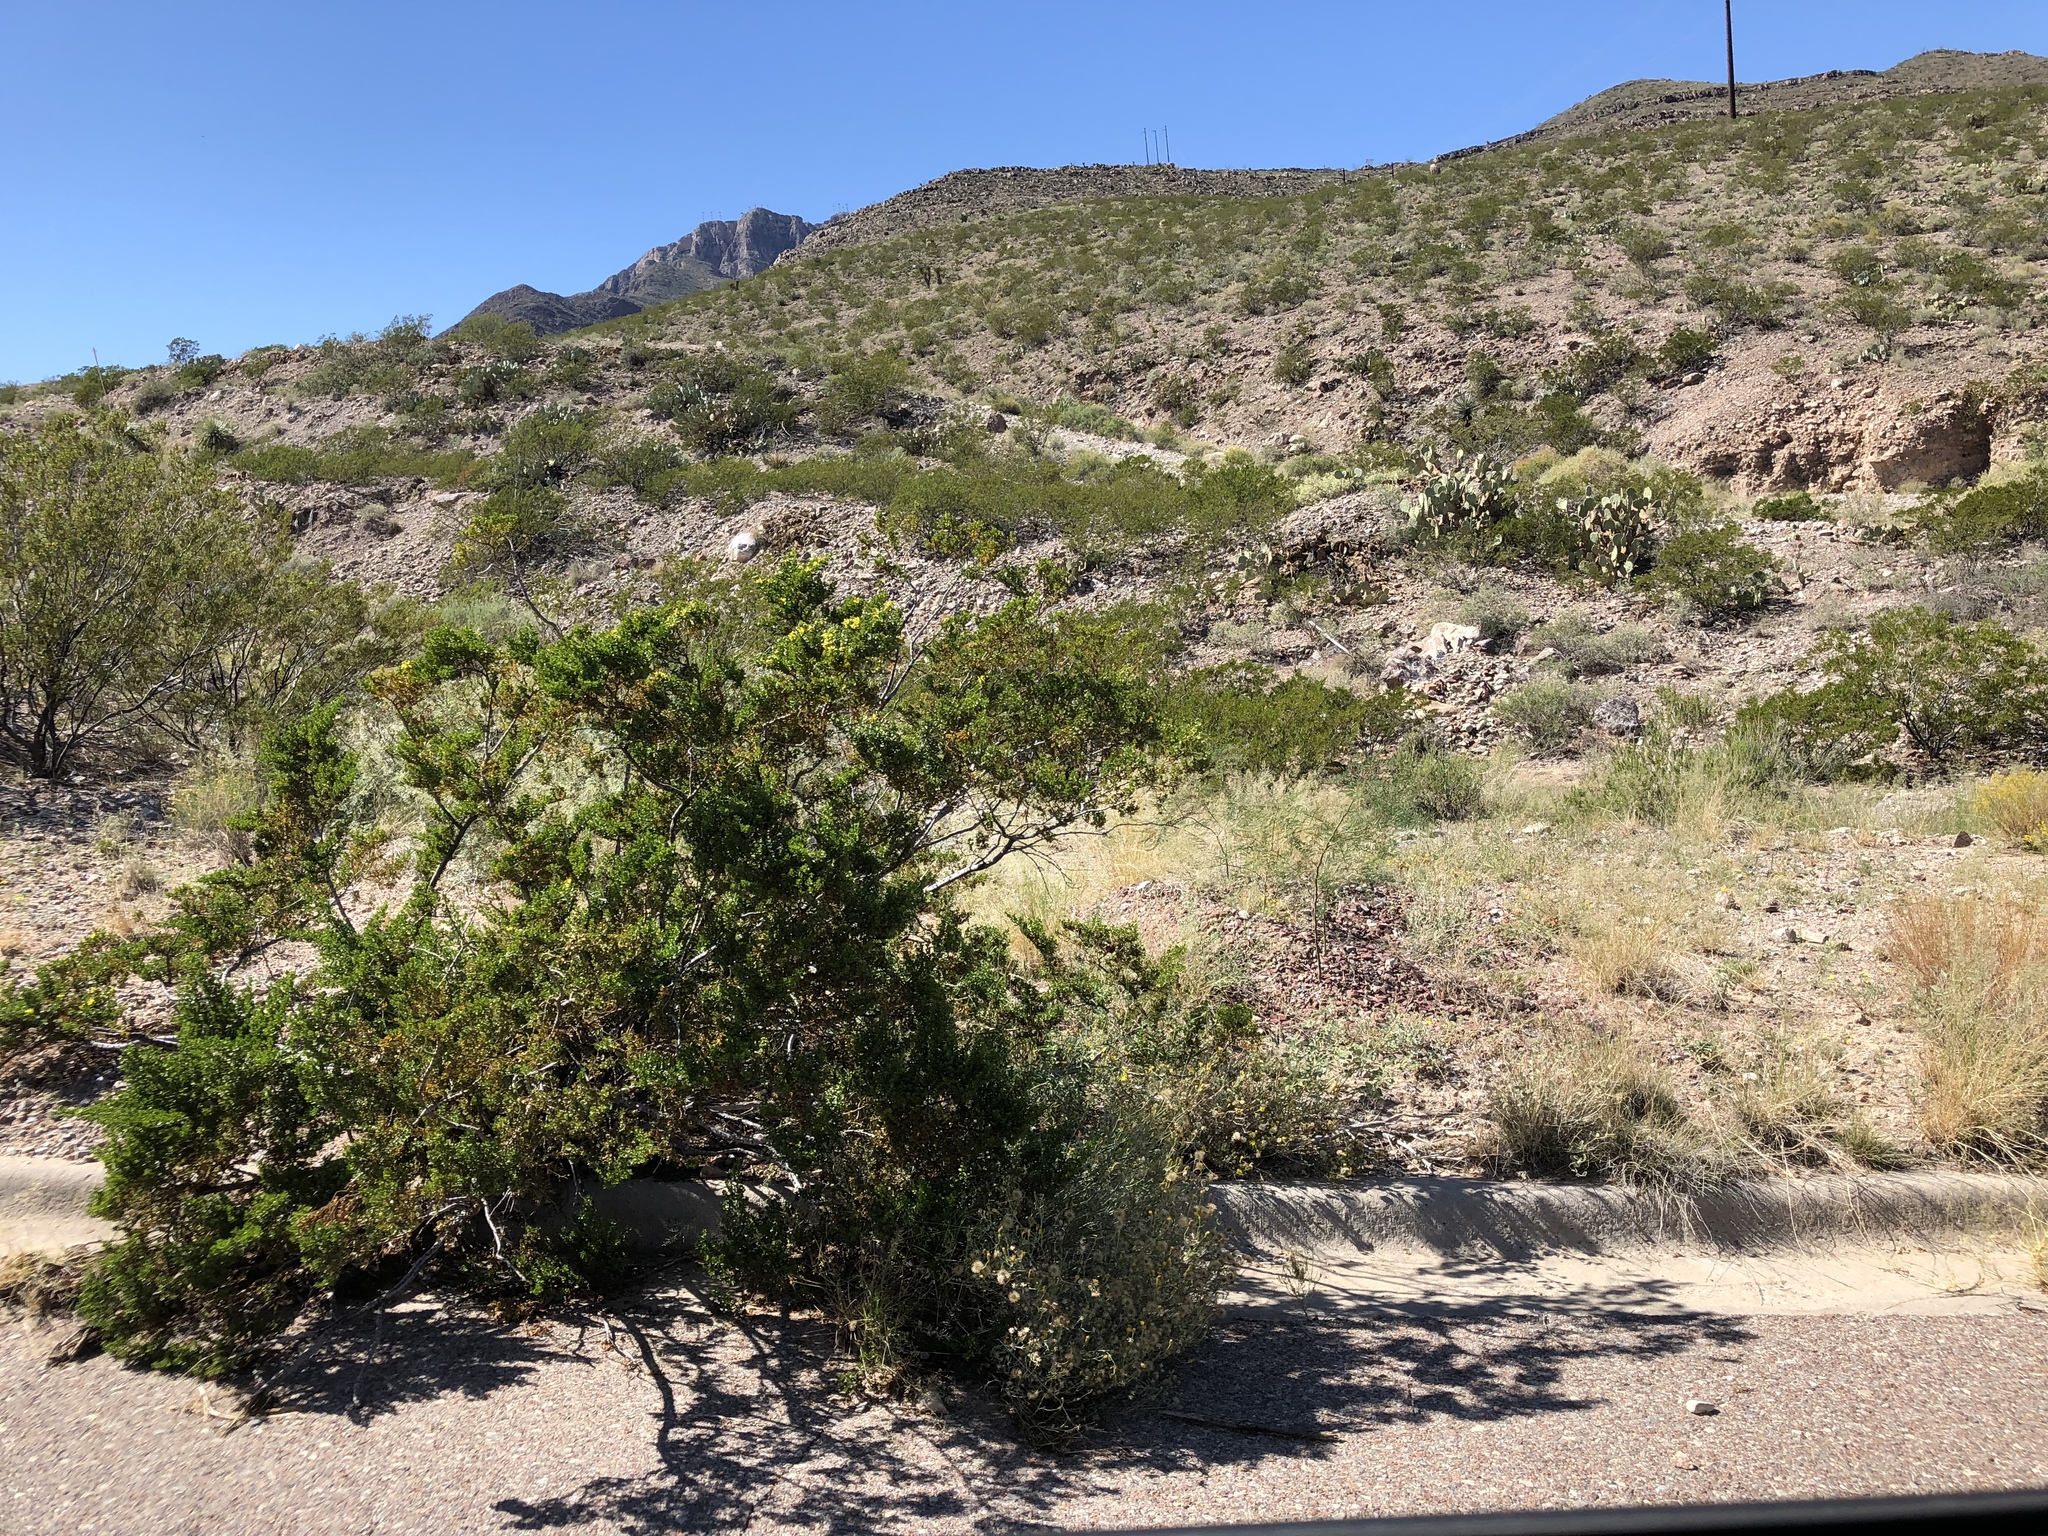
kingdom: Plantae
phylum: Tracheophyta
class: Magnoliopsida
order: Zygophyllales
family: Zygophyllaceae
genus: Larrea
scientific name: Larrea tridentata
